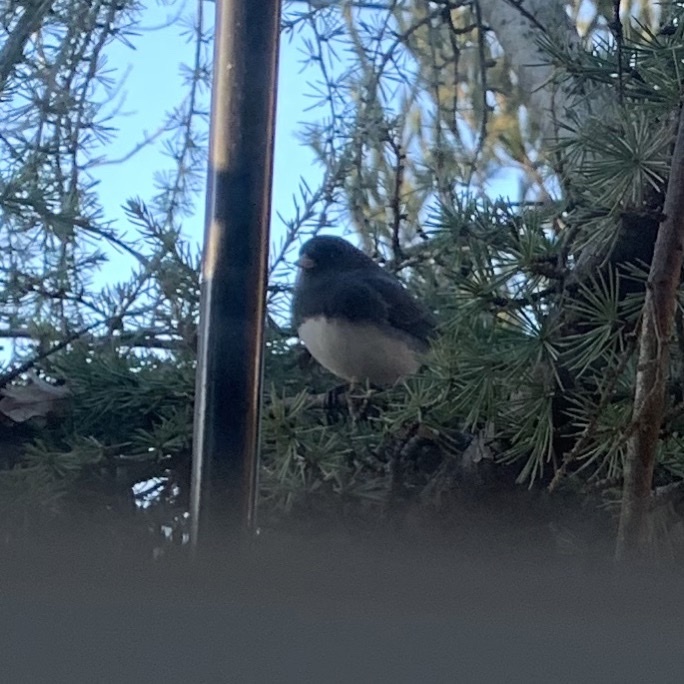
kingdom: Animalia
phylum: Chordata
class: Aves
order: Passeriformes
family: Passerellidae
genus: Junco
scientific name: Junco hyemalis
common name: Dark-eyed junco
